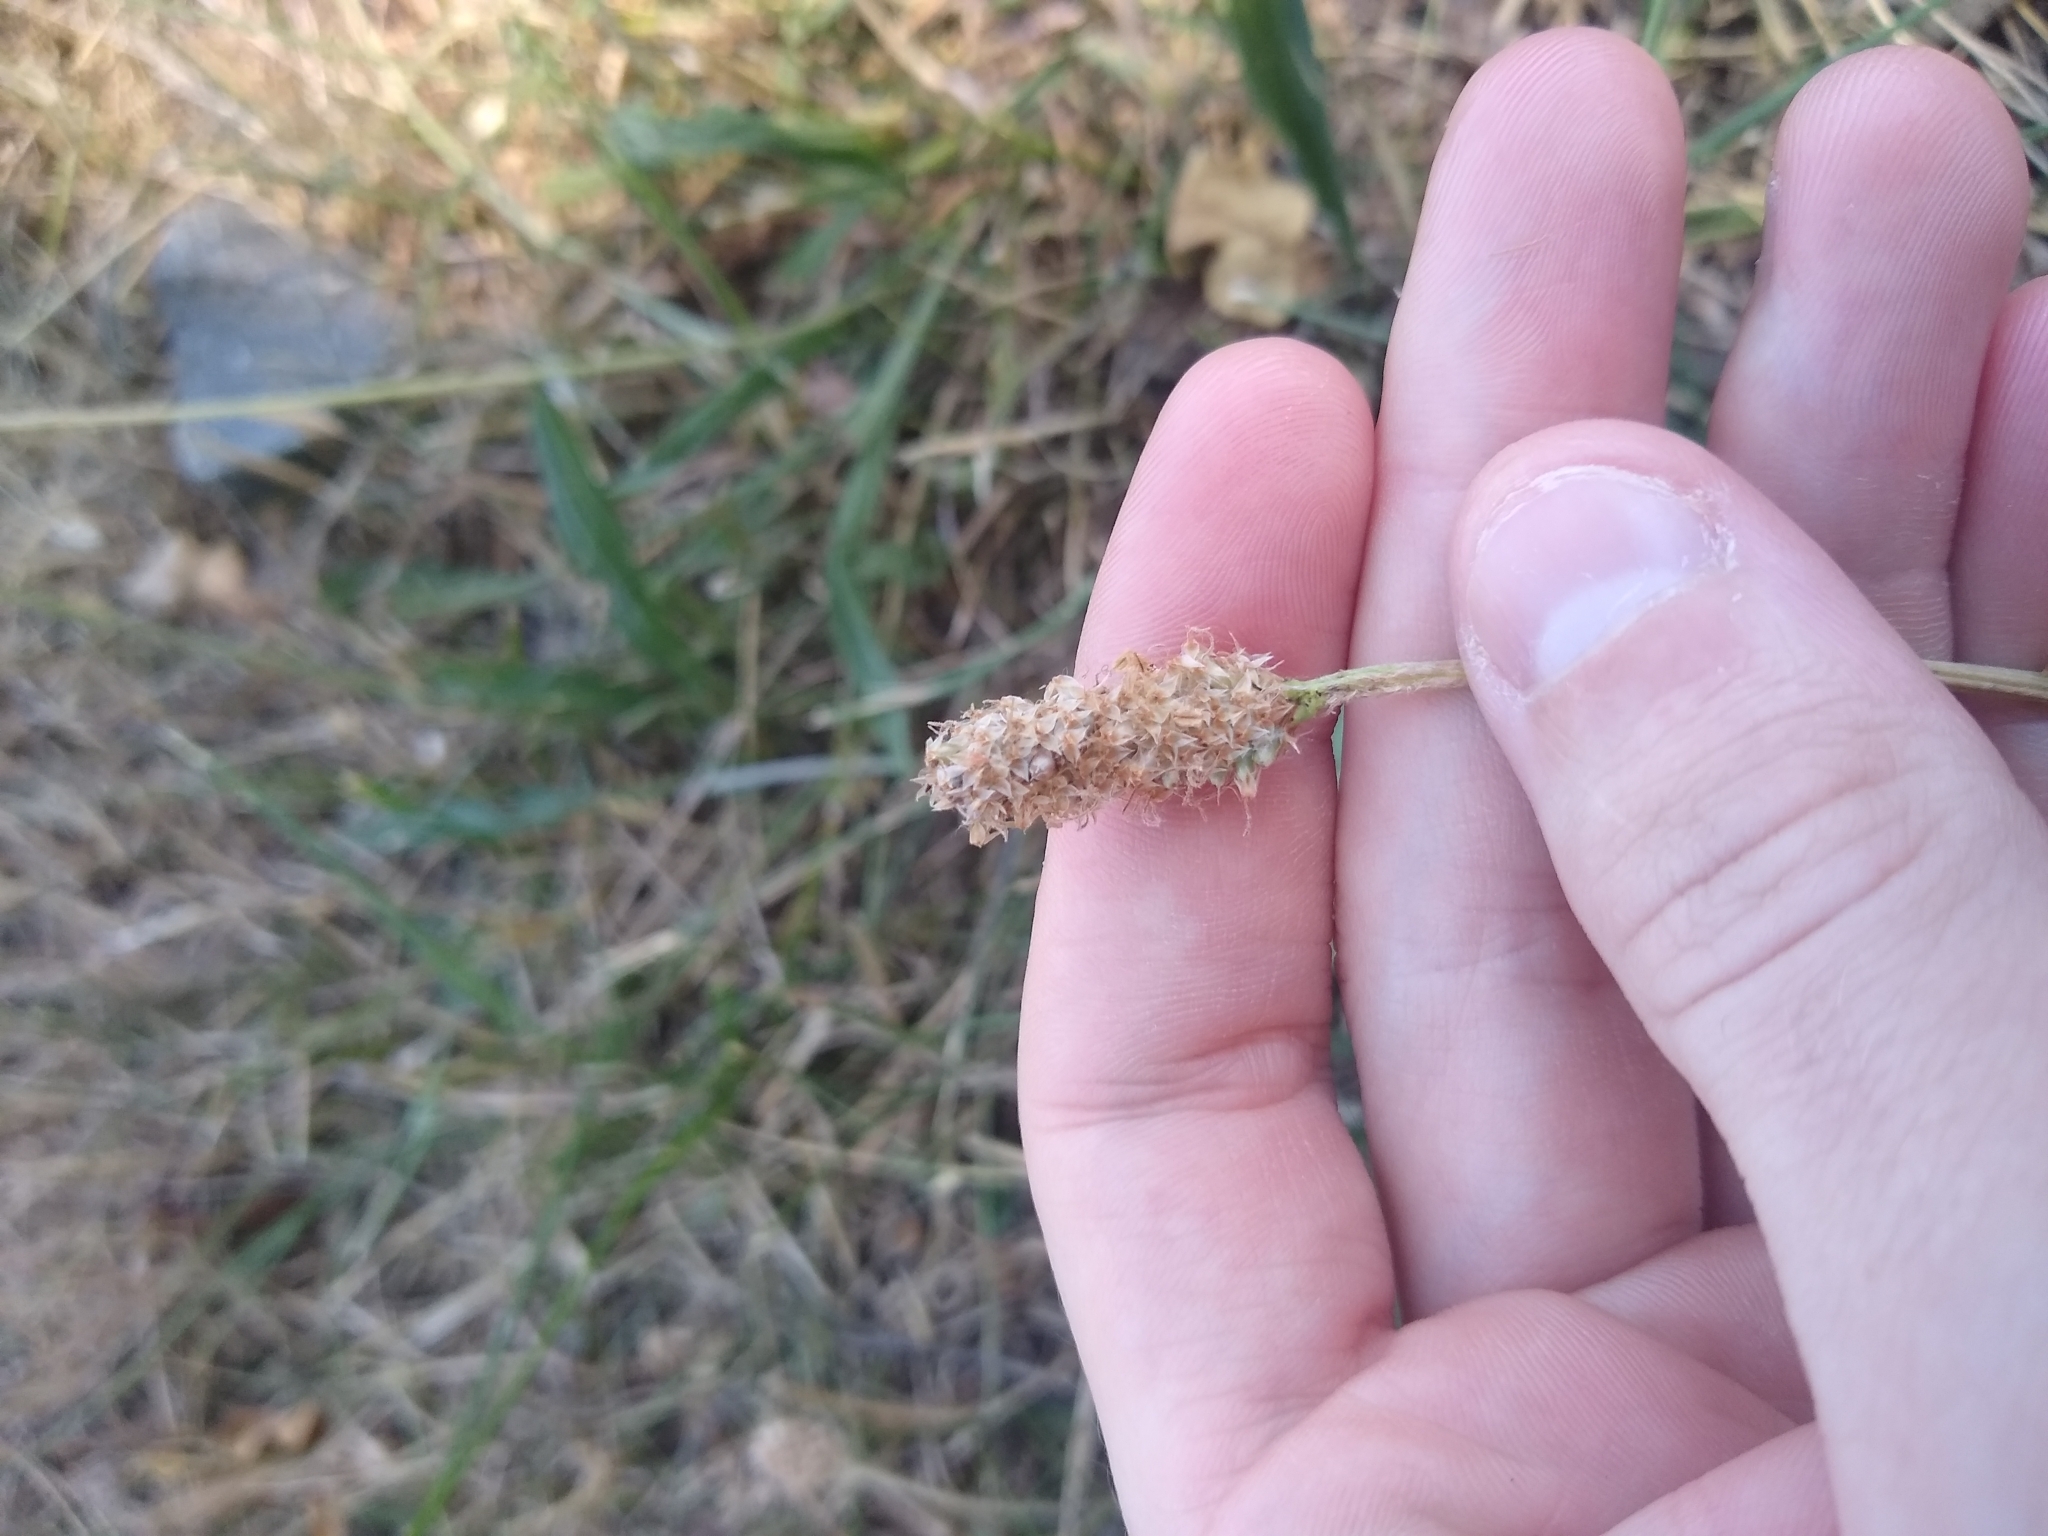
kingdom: Plantae
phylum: Tracheophyta
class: Magnoliopsida
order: Lamiales
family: Plantaginaceae
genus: Plantago
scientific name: Plantago lanceolata
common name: Ribwort plantain
